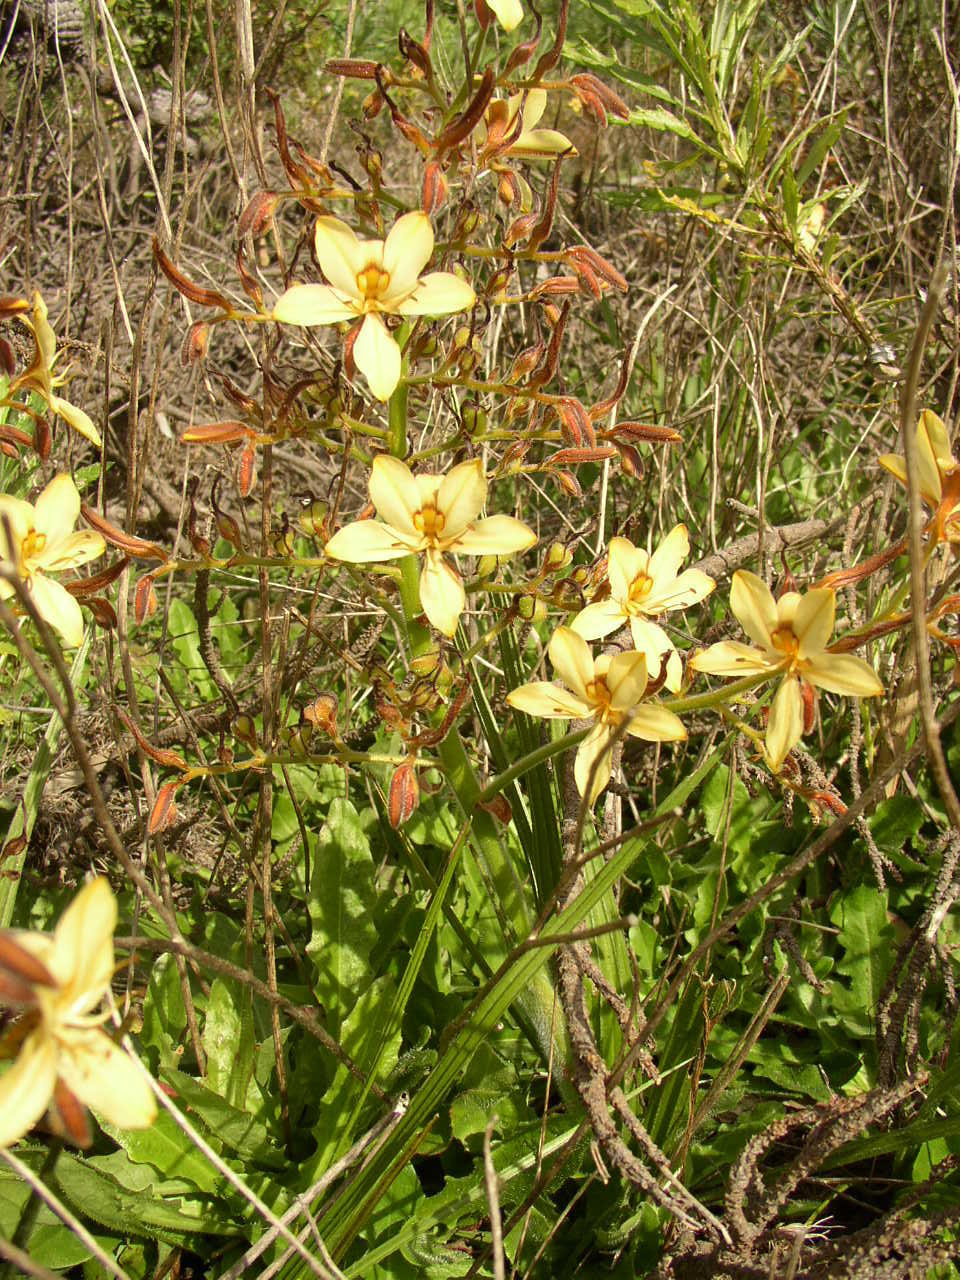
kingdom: Plantae
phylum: Tracheophyta
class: Liliopsida
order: Commelinales
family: Haemodoraceae
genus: Wachendorfia
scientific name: Wachendorfia paniculata
